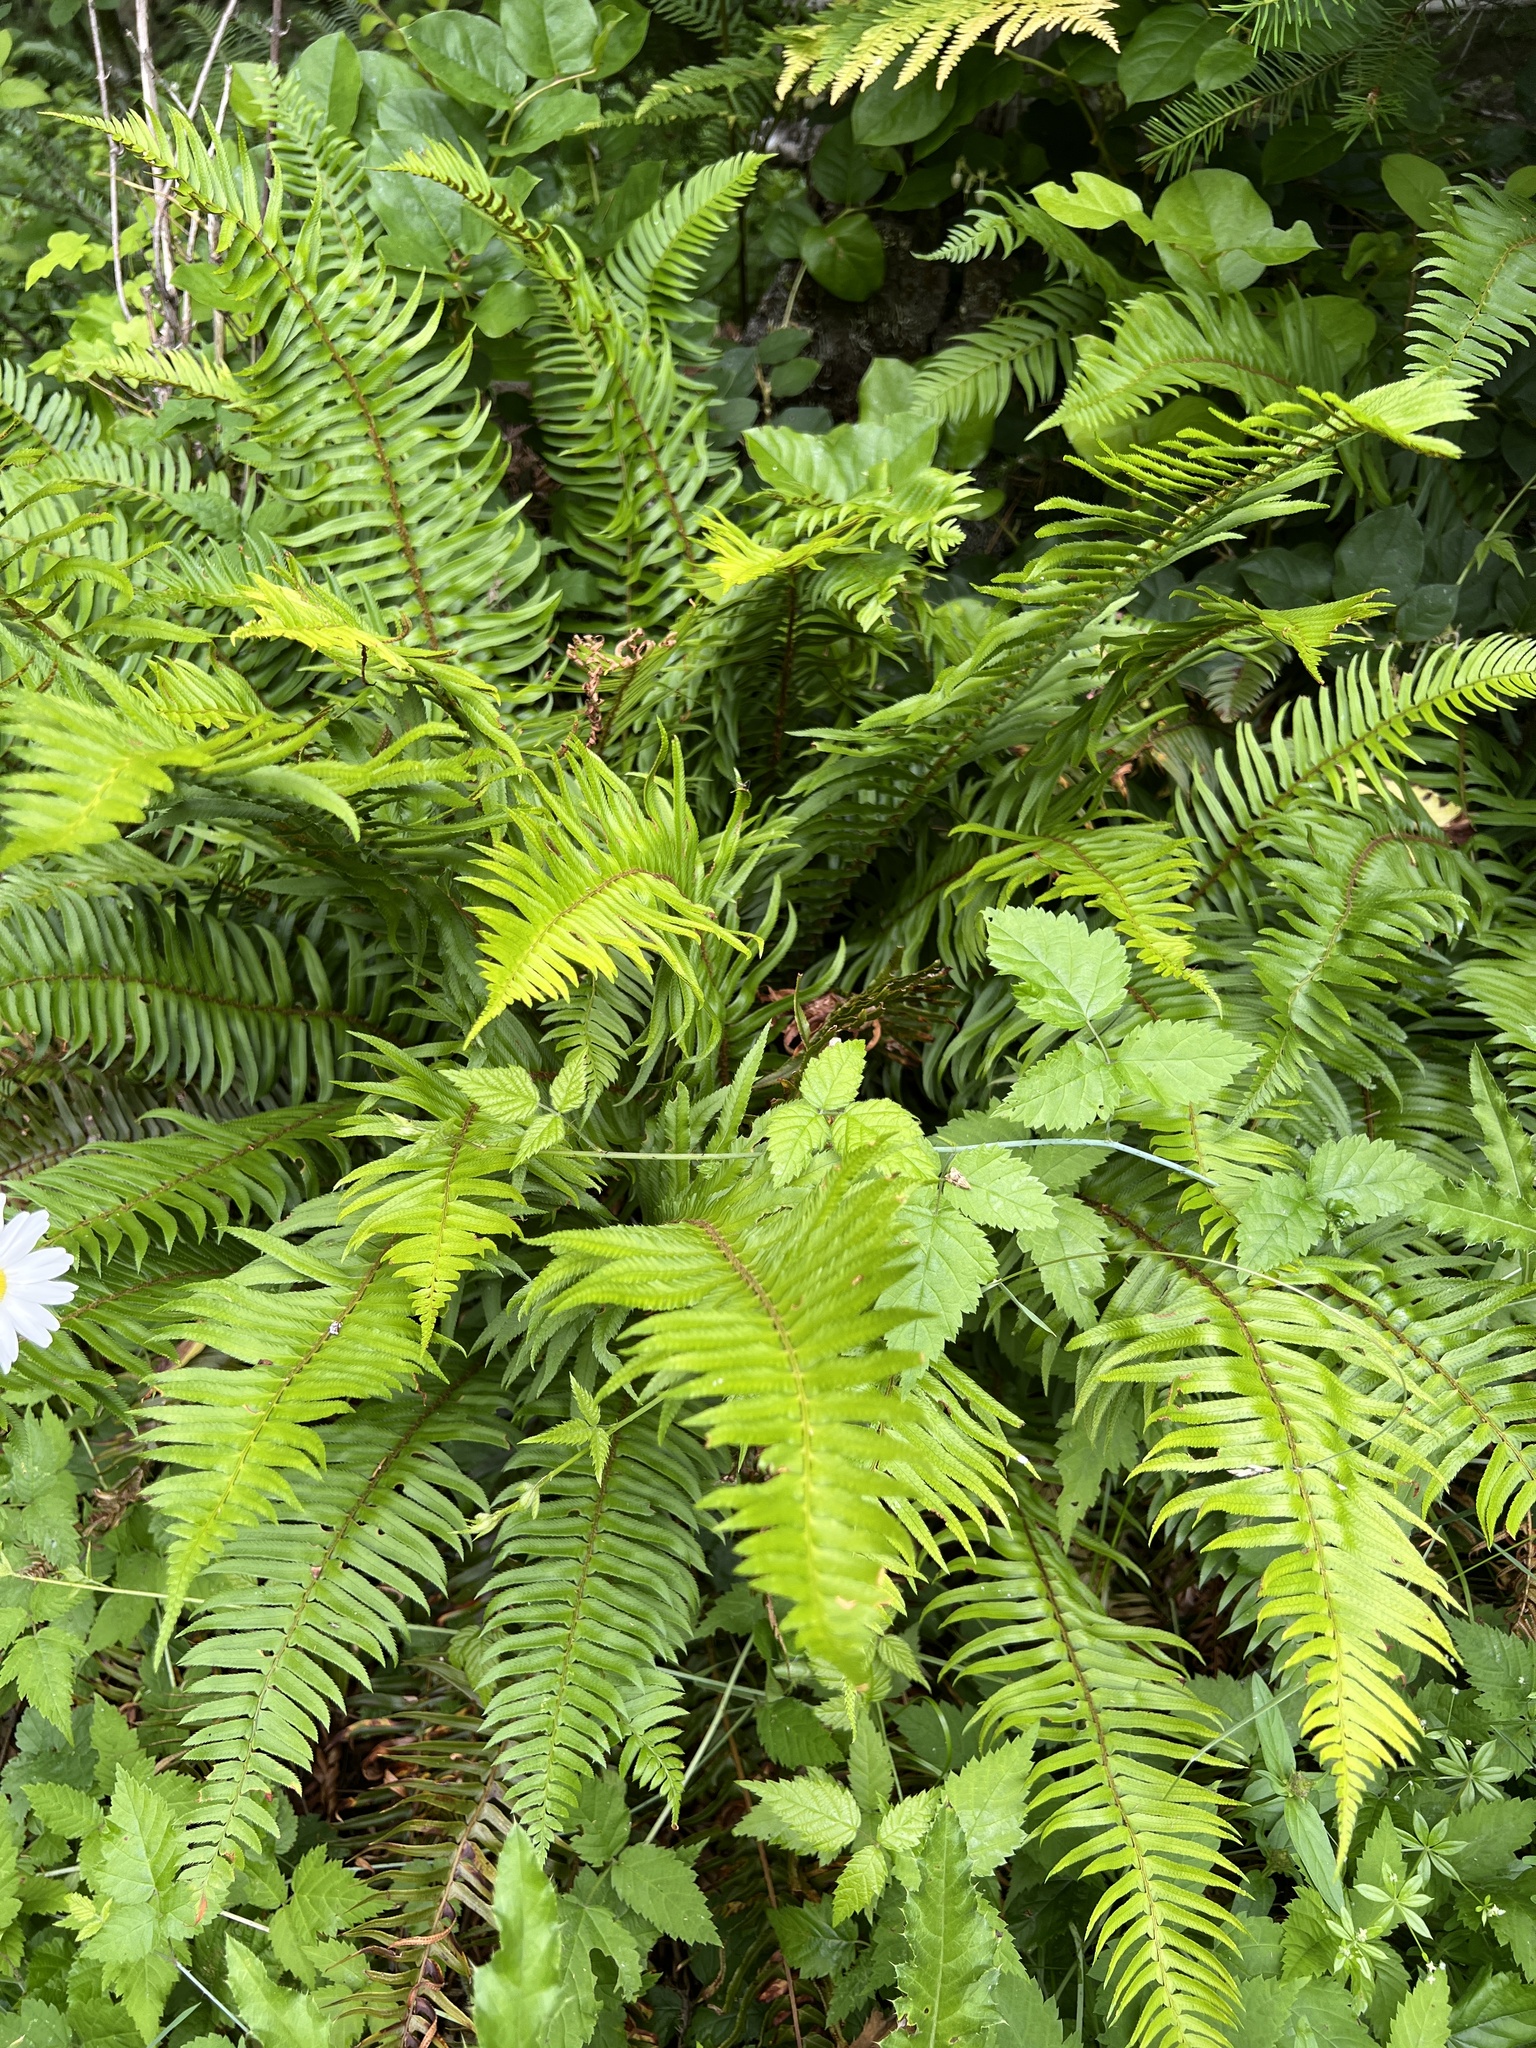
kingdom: Plantae
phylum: Tracheophyta
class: Polypodiopsida
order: Polypodiales
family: Dryopteridaceae
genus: Polystichum
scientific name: Polystichum munitum
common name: Western sword-fern
